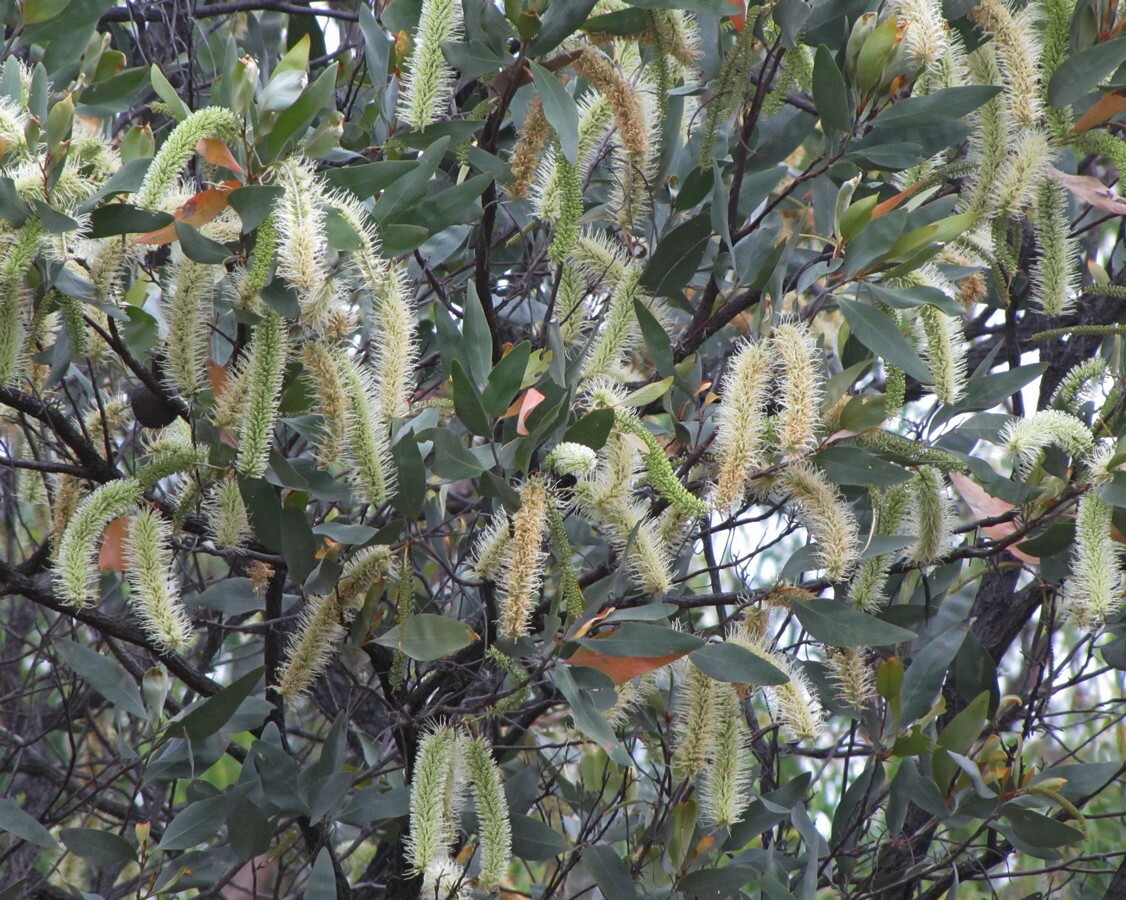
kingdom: Plantae
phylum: Tracheophyta
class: Magnoliopsida
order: Proteales
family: Proteaceae
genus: Grevillea
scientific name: Grevillea glauca
